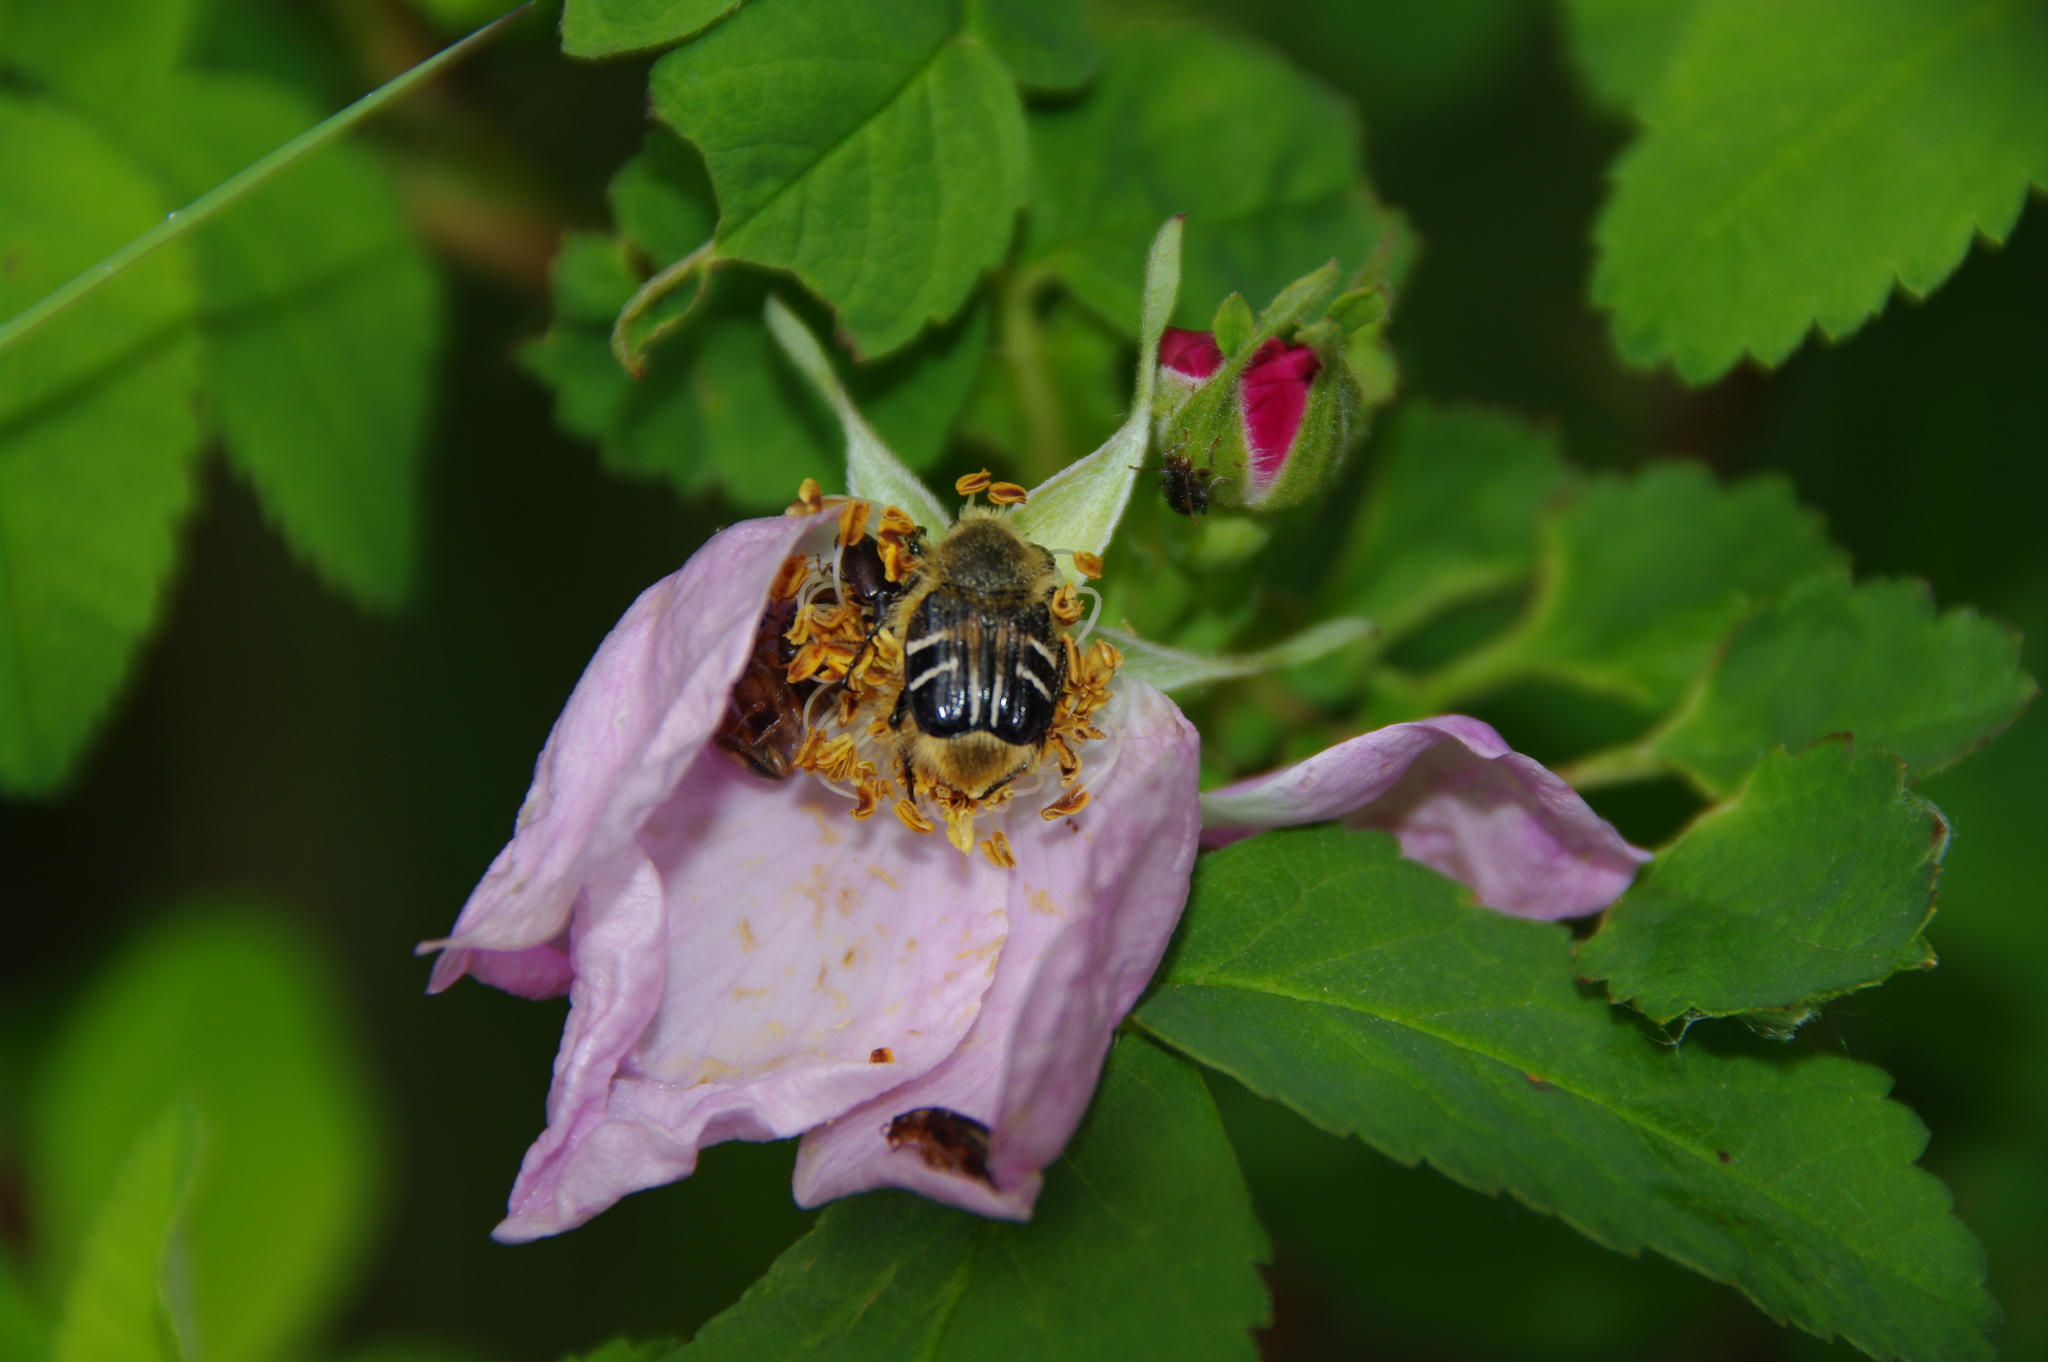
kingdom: Animalia
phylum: Arthropoda
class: Insecta
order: Coleoptera
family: Scarabaeidae
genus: Trichiotinus
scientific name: Trichiotinus assimilis
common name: Bee-mimic beetle
